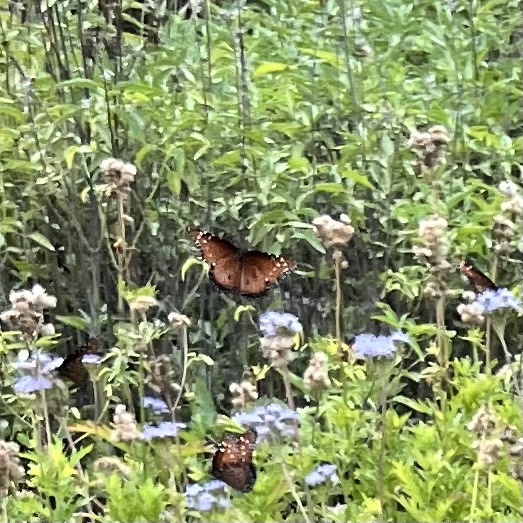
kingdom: Animalia
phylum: Arthropoda
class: Insecta
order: Lepidoptera
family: Nymphalidae
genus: Danaus
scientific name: Danaus gilippus
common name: Queen
